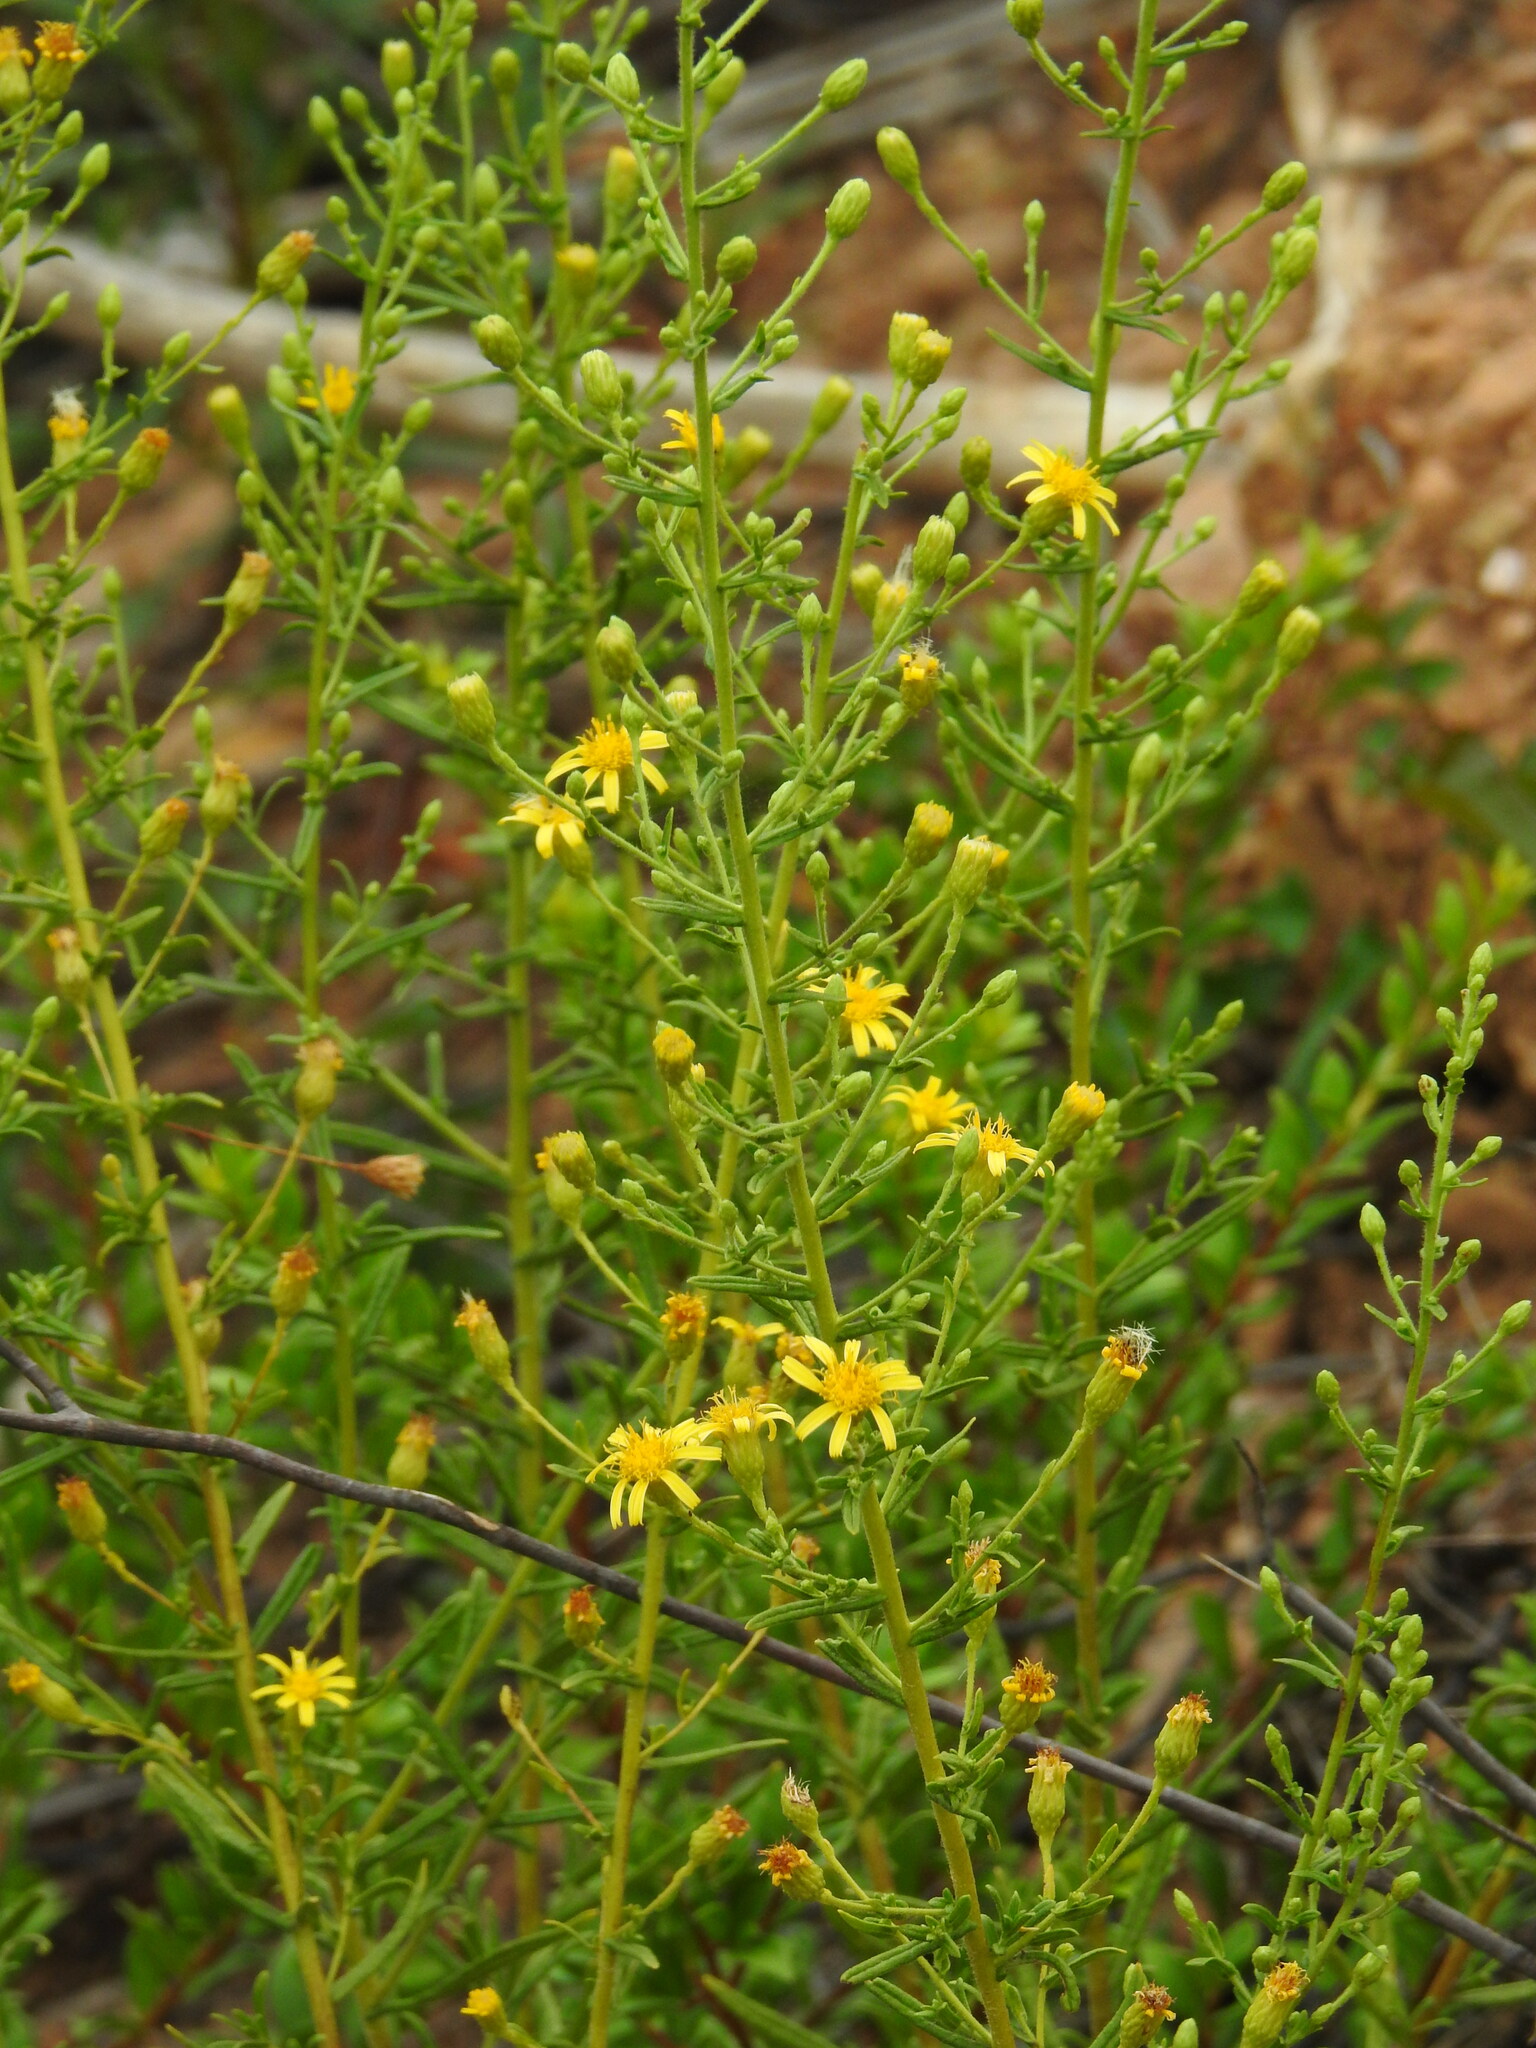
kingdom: Plantae
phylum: Tracheophyta
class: Magnoliopsida
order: Asterales
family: Asteraceae
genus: Dittrichia
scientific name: Dittrichia viscosa
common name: Woody fleabane
